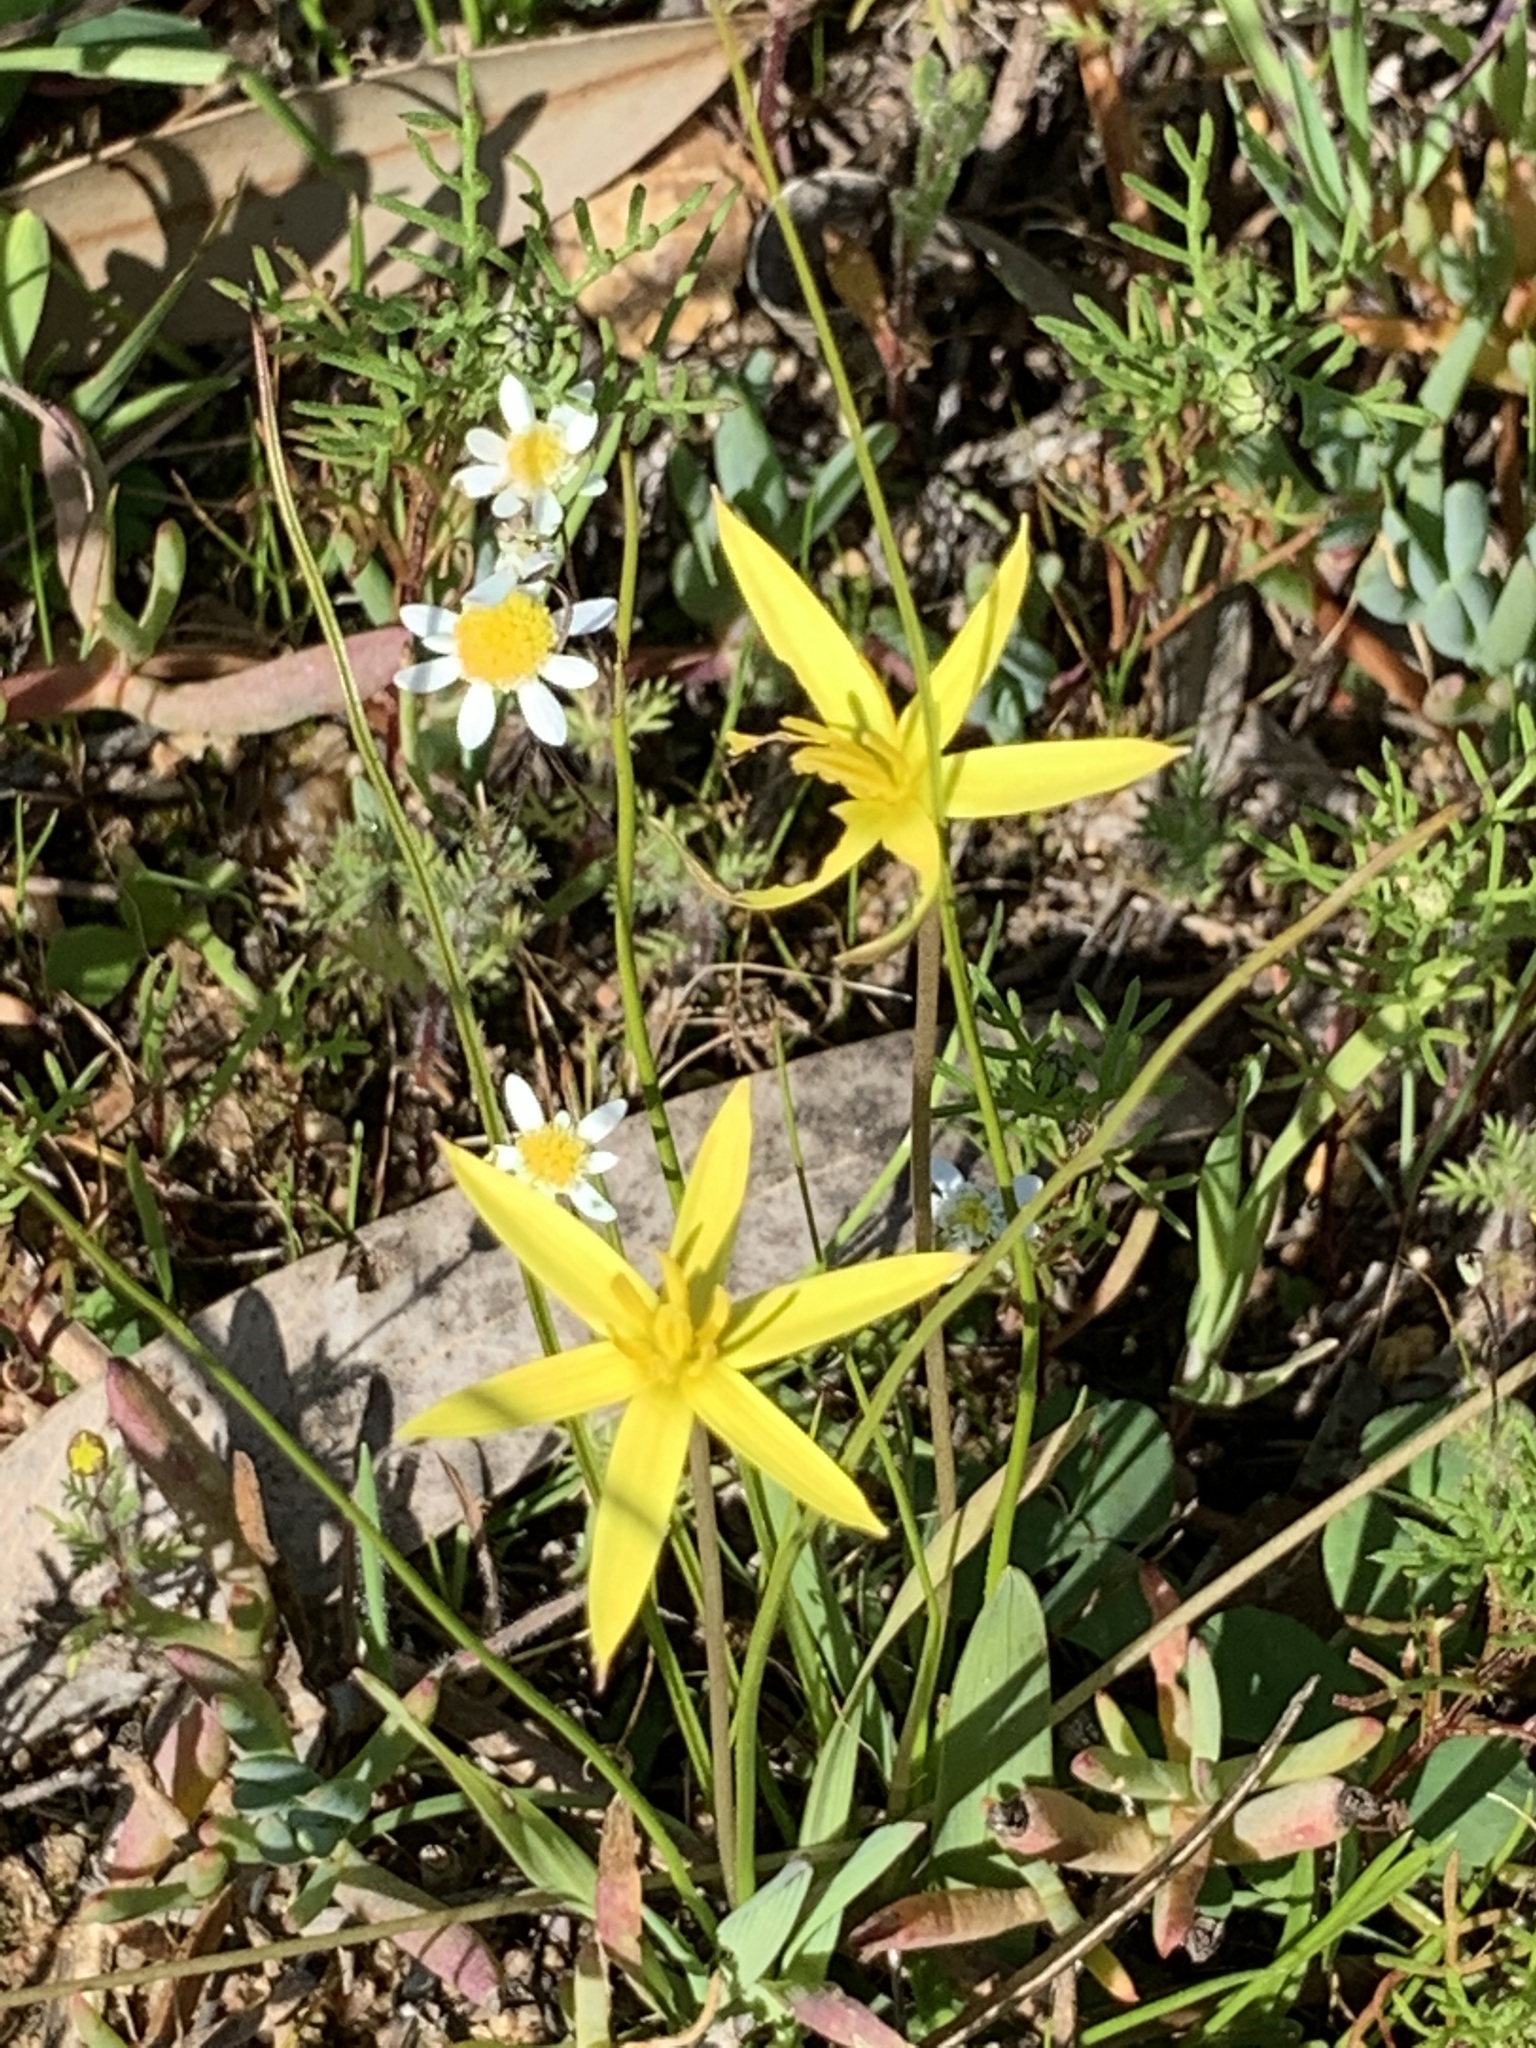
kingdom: Plantae
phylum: Tracheophyta
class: Liliopsida
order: Asparagales
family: Hypoxidaceae
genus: Pauridia
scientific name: Pauridia serrata
